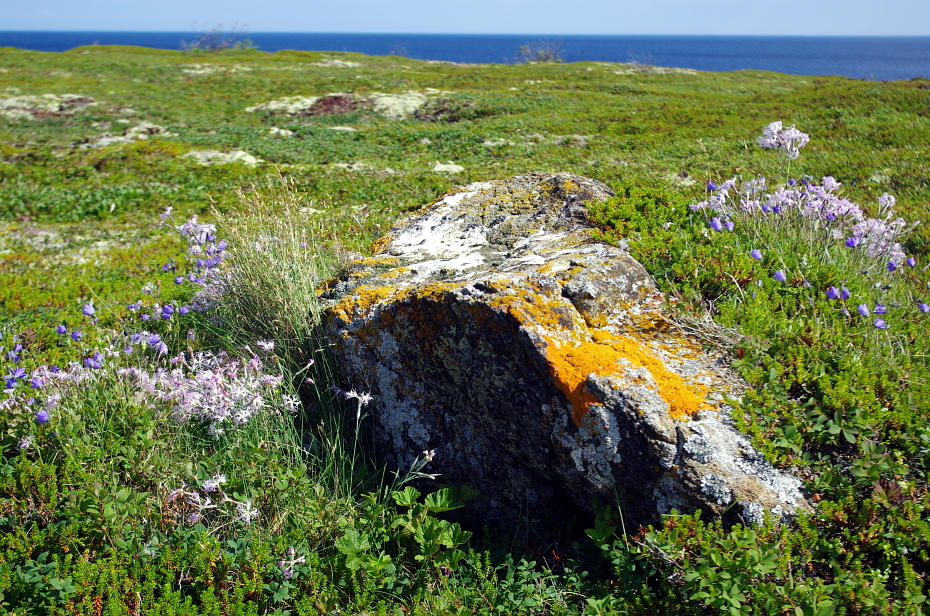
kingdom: Plantae
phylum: Tracheophyta
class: Magnoliopsida
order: Caryophyllales
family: Caryophyllaceae
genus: Dianthus
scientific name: Dianthus superbus
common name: Fringed pink
